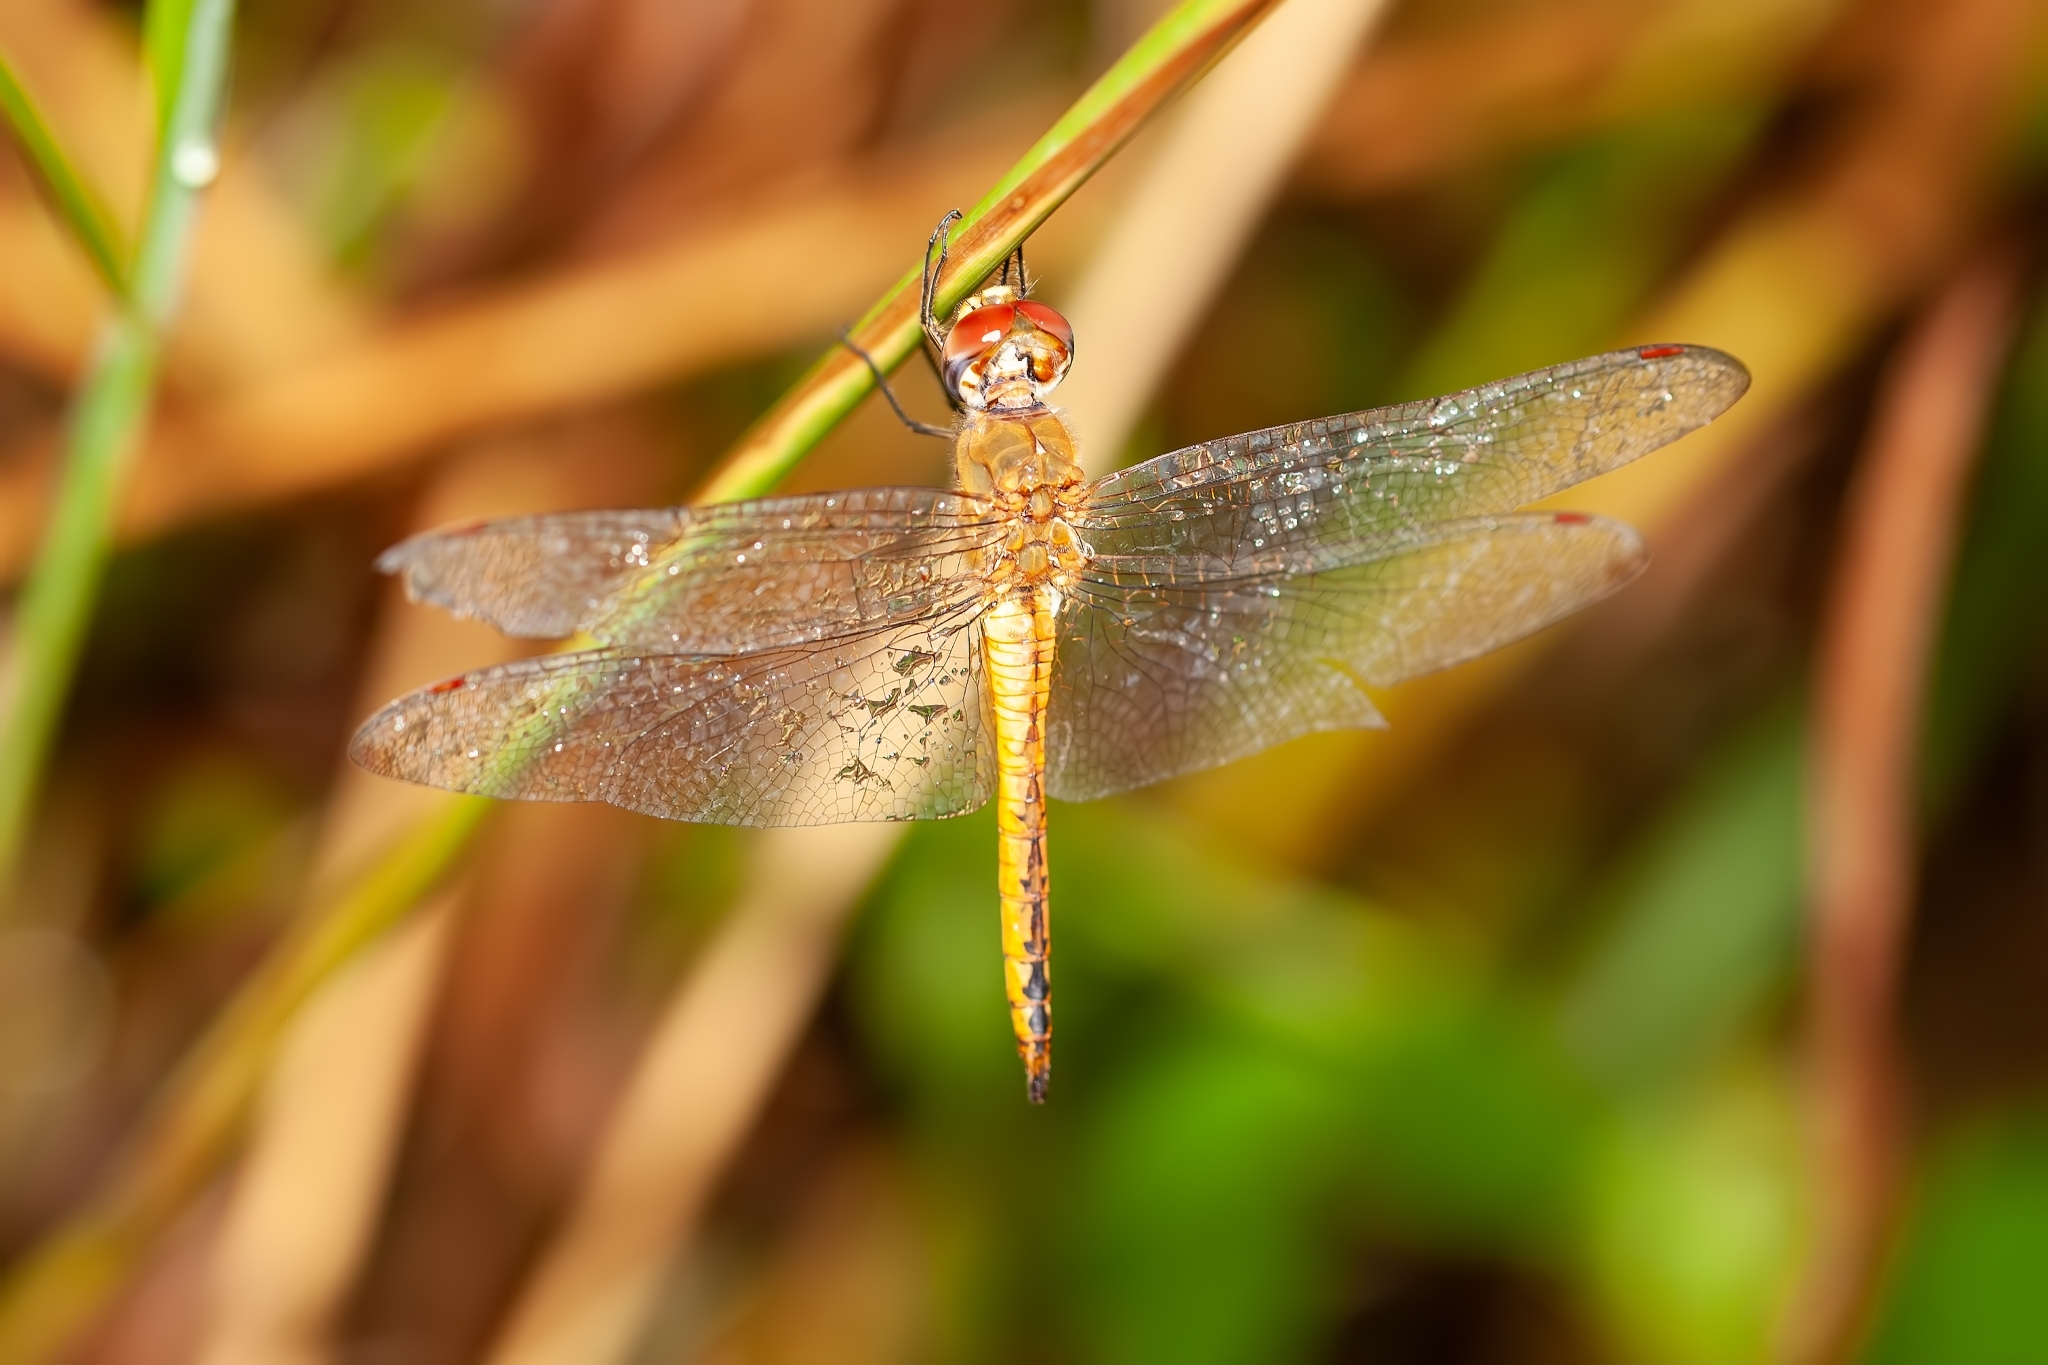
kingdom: Animalia
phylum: Arthropoda
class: Insecta
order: Odonata
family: Libellulidae
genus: Pantala
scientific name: Pantala flavescens
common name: Wandering glider
